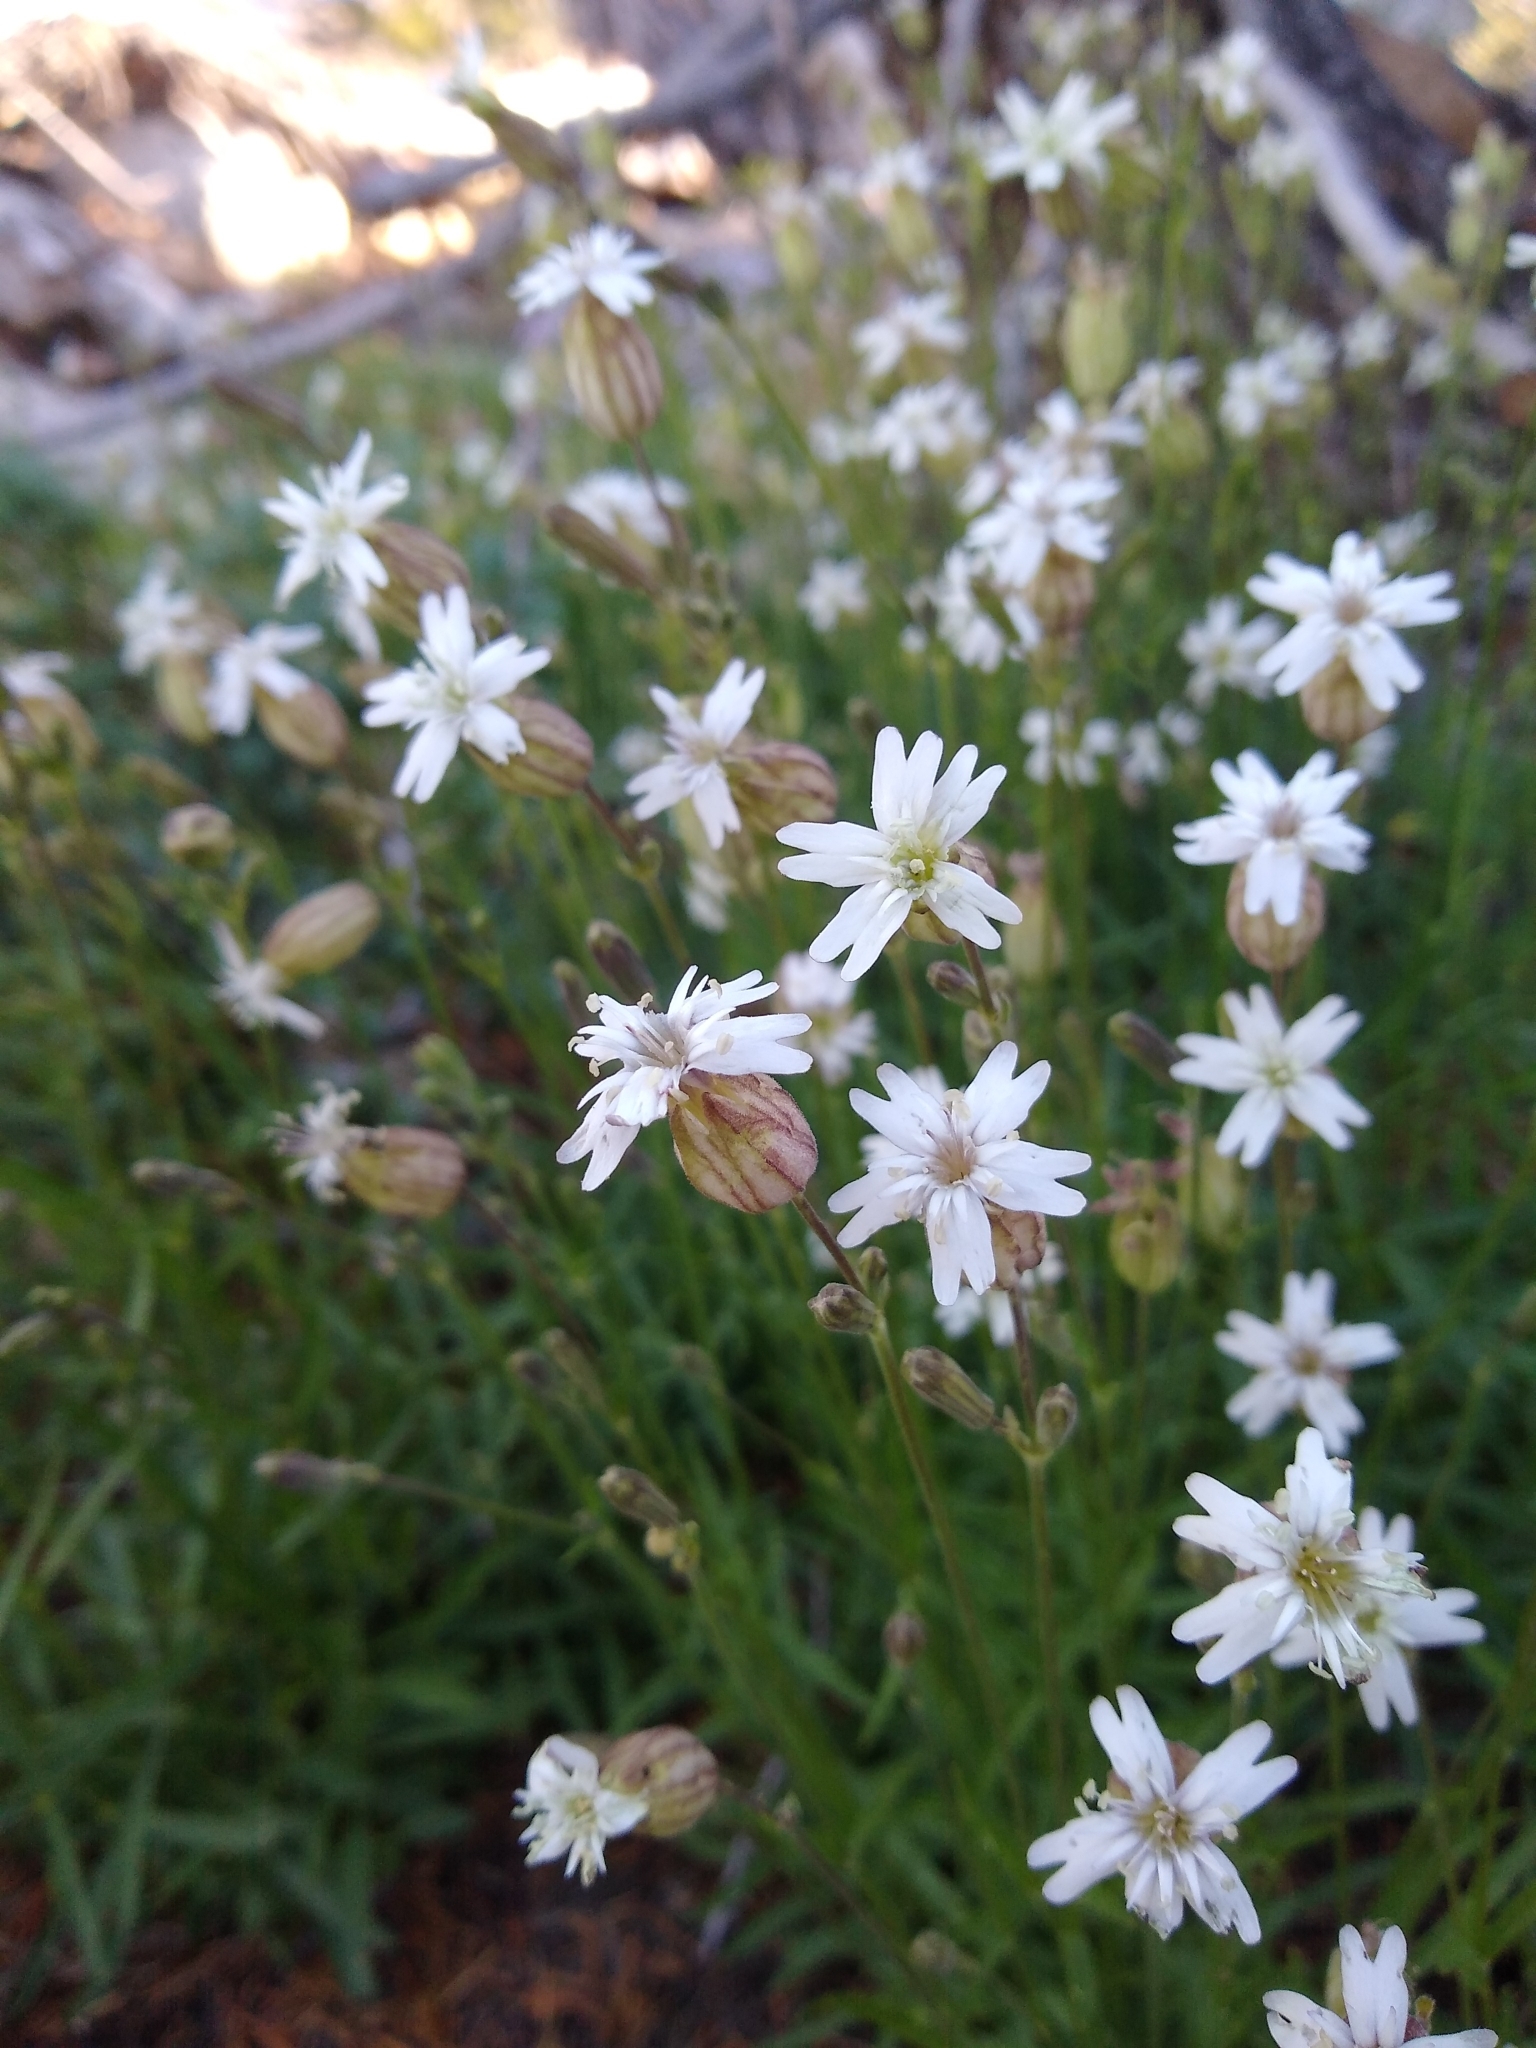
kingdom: Plantae
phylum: Tracheophyta
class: Magnoliopsida
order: Caryophyllales
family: Caryophyllaceae
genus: Silene
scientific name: Silene douglasii
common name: Douglas's catchfly
